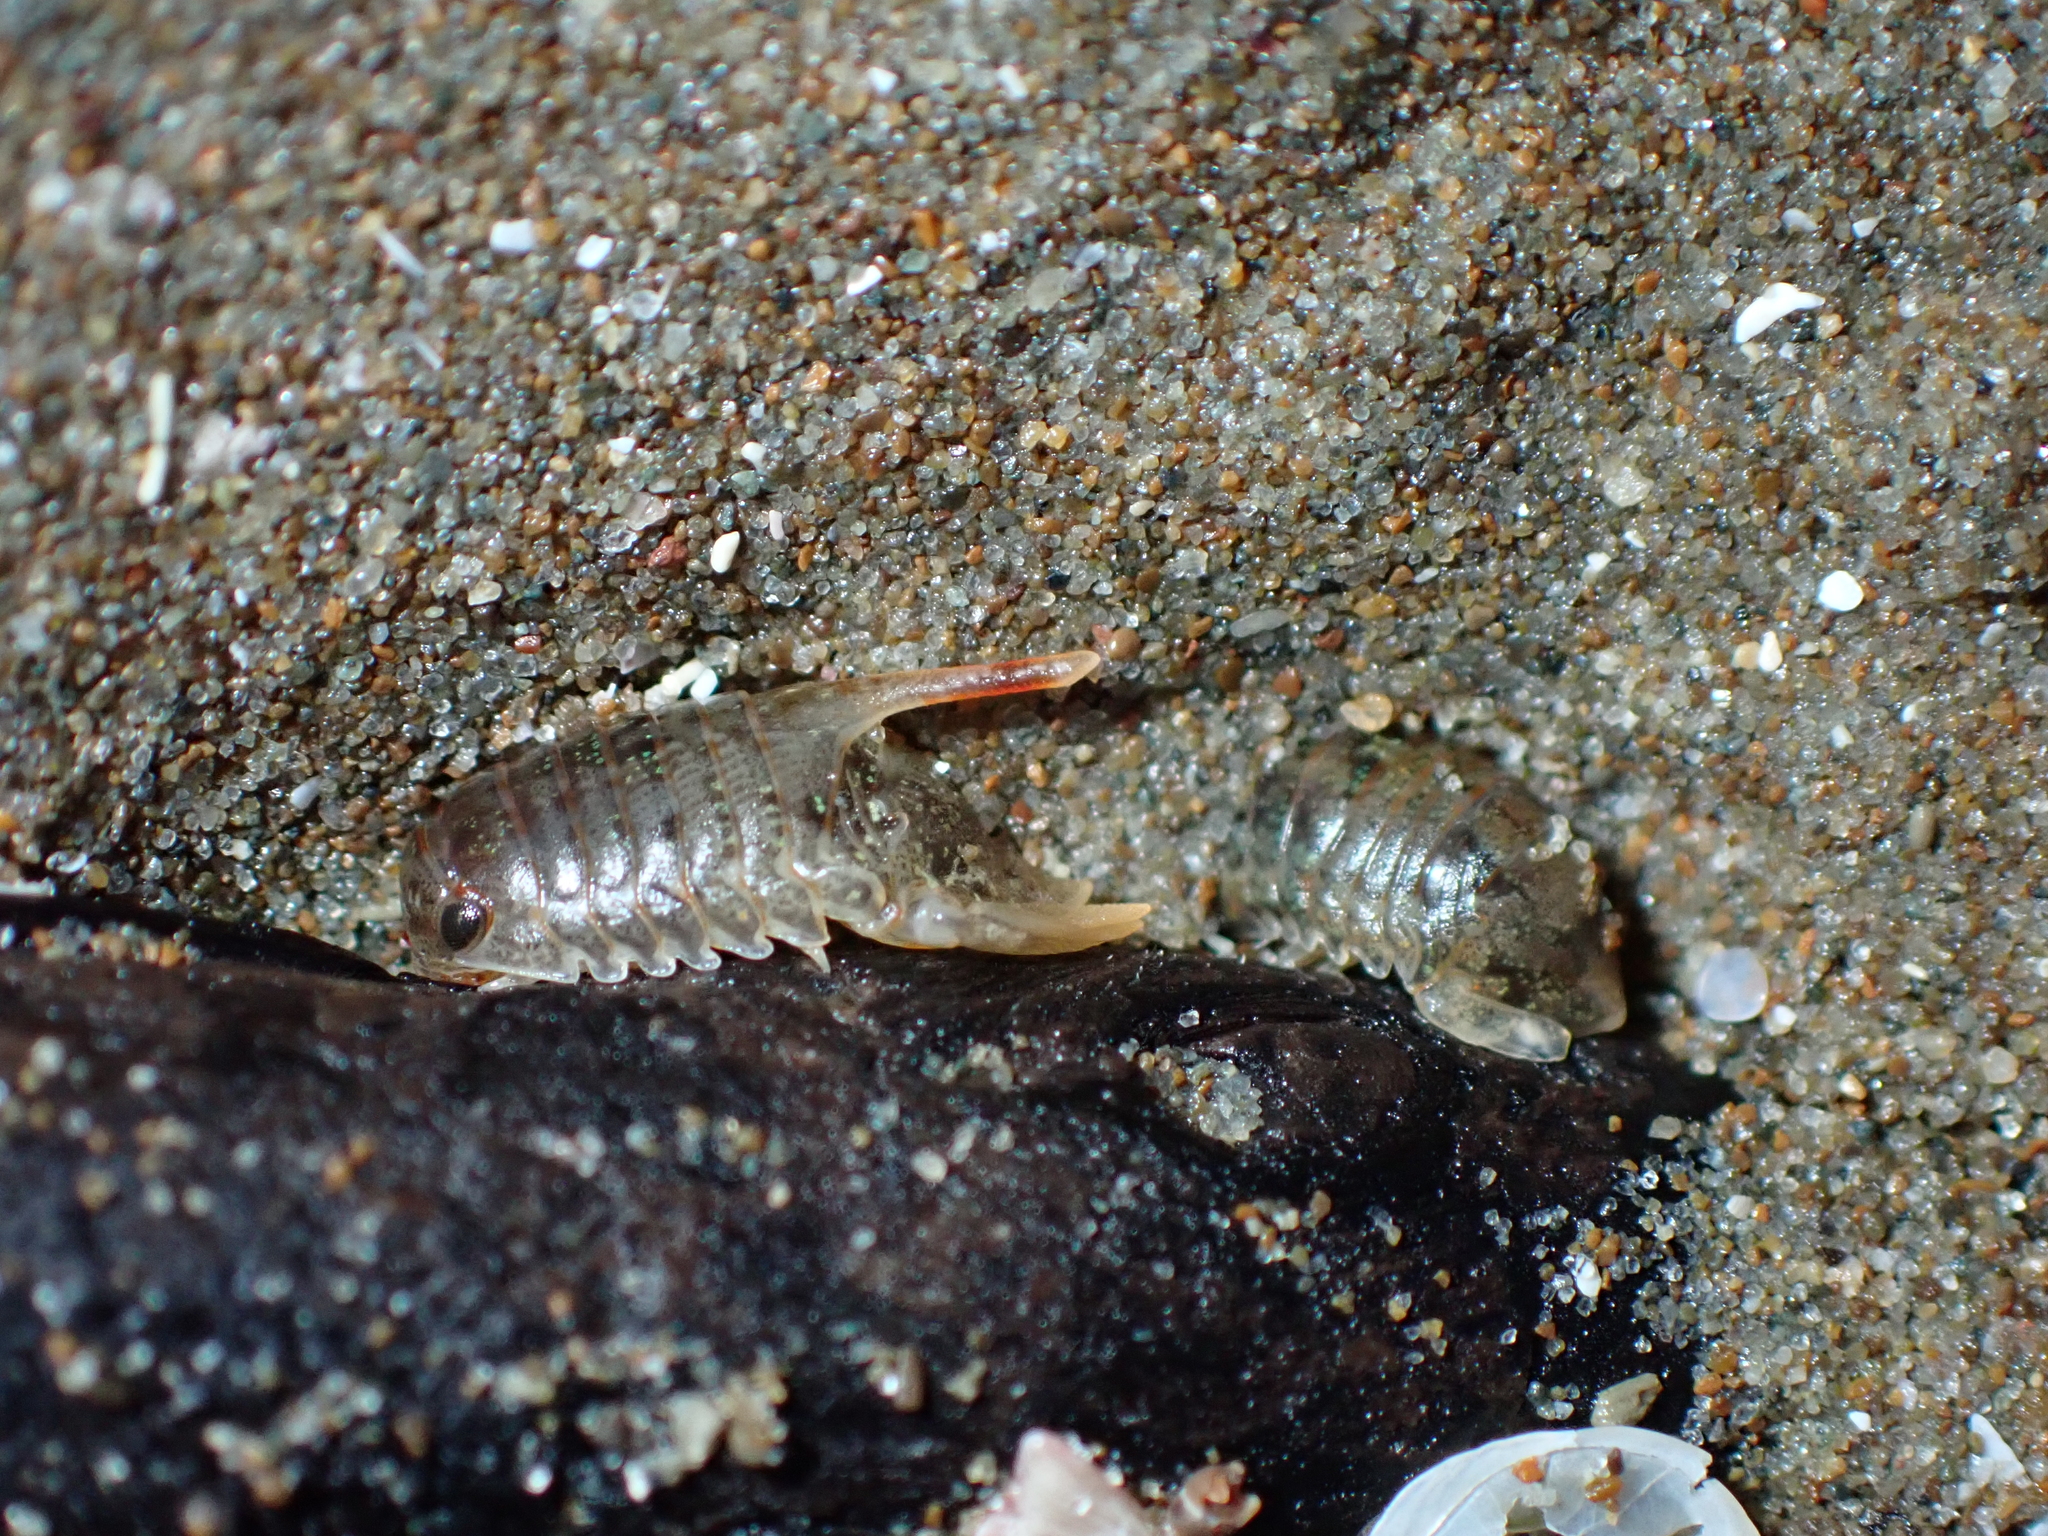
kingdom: Animalia
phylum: Arthropoda
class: Malacostraca
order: Isopoda
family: Sphaeromatidae
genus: Isocladus
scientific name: Isocladus
